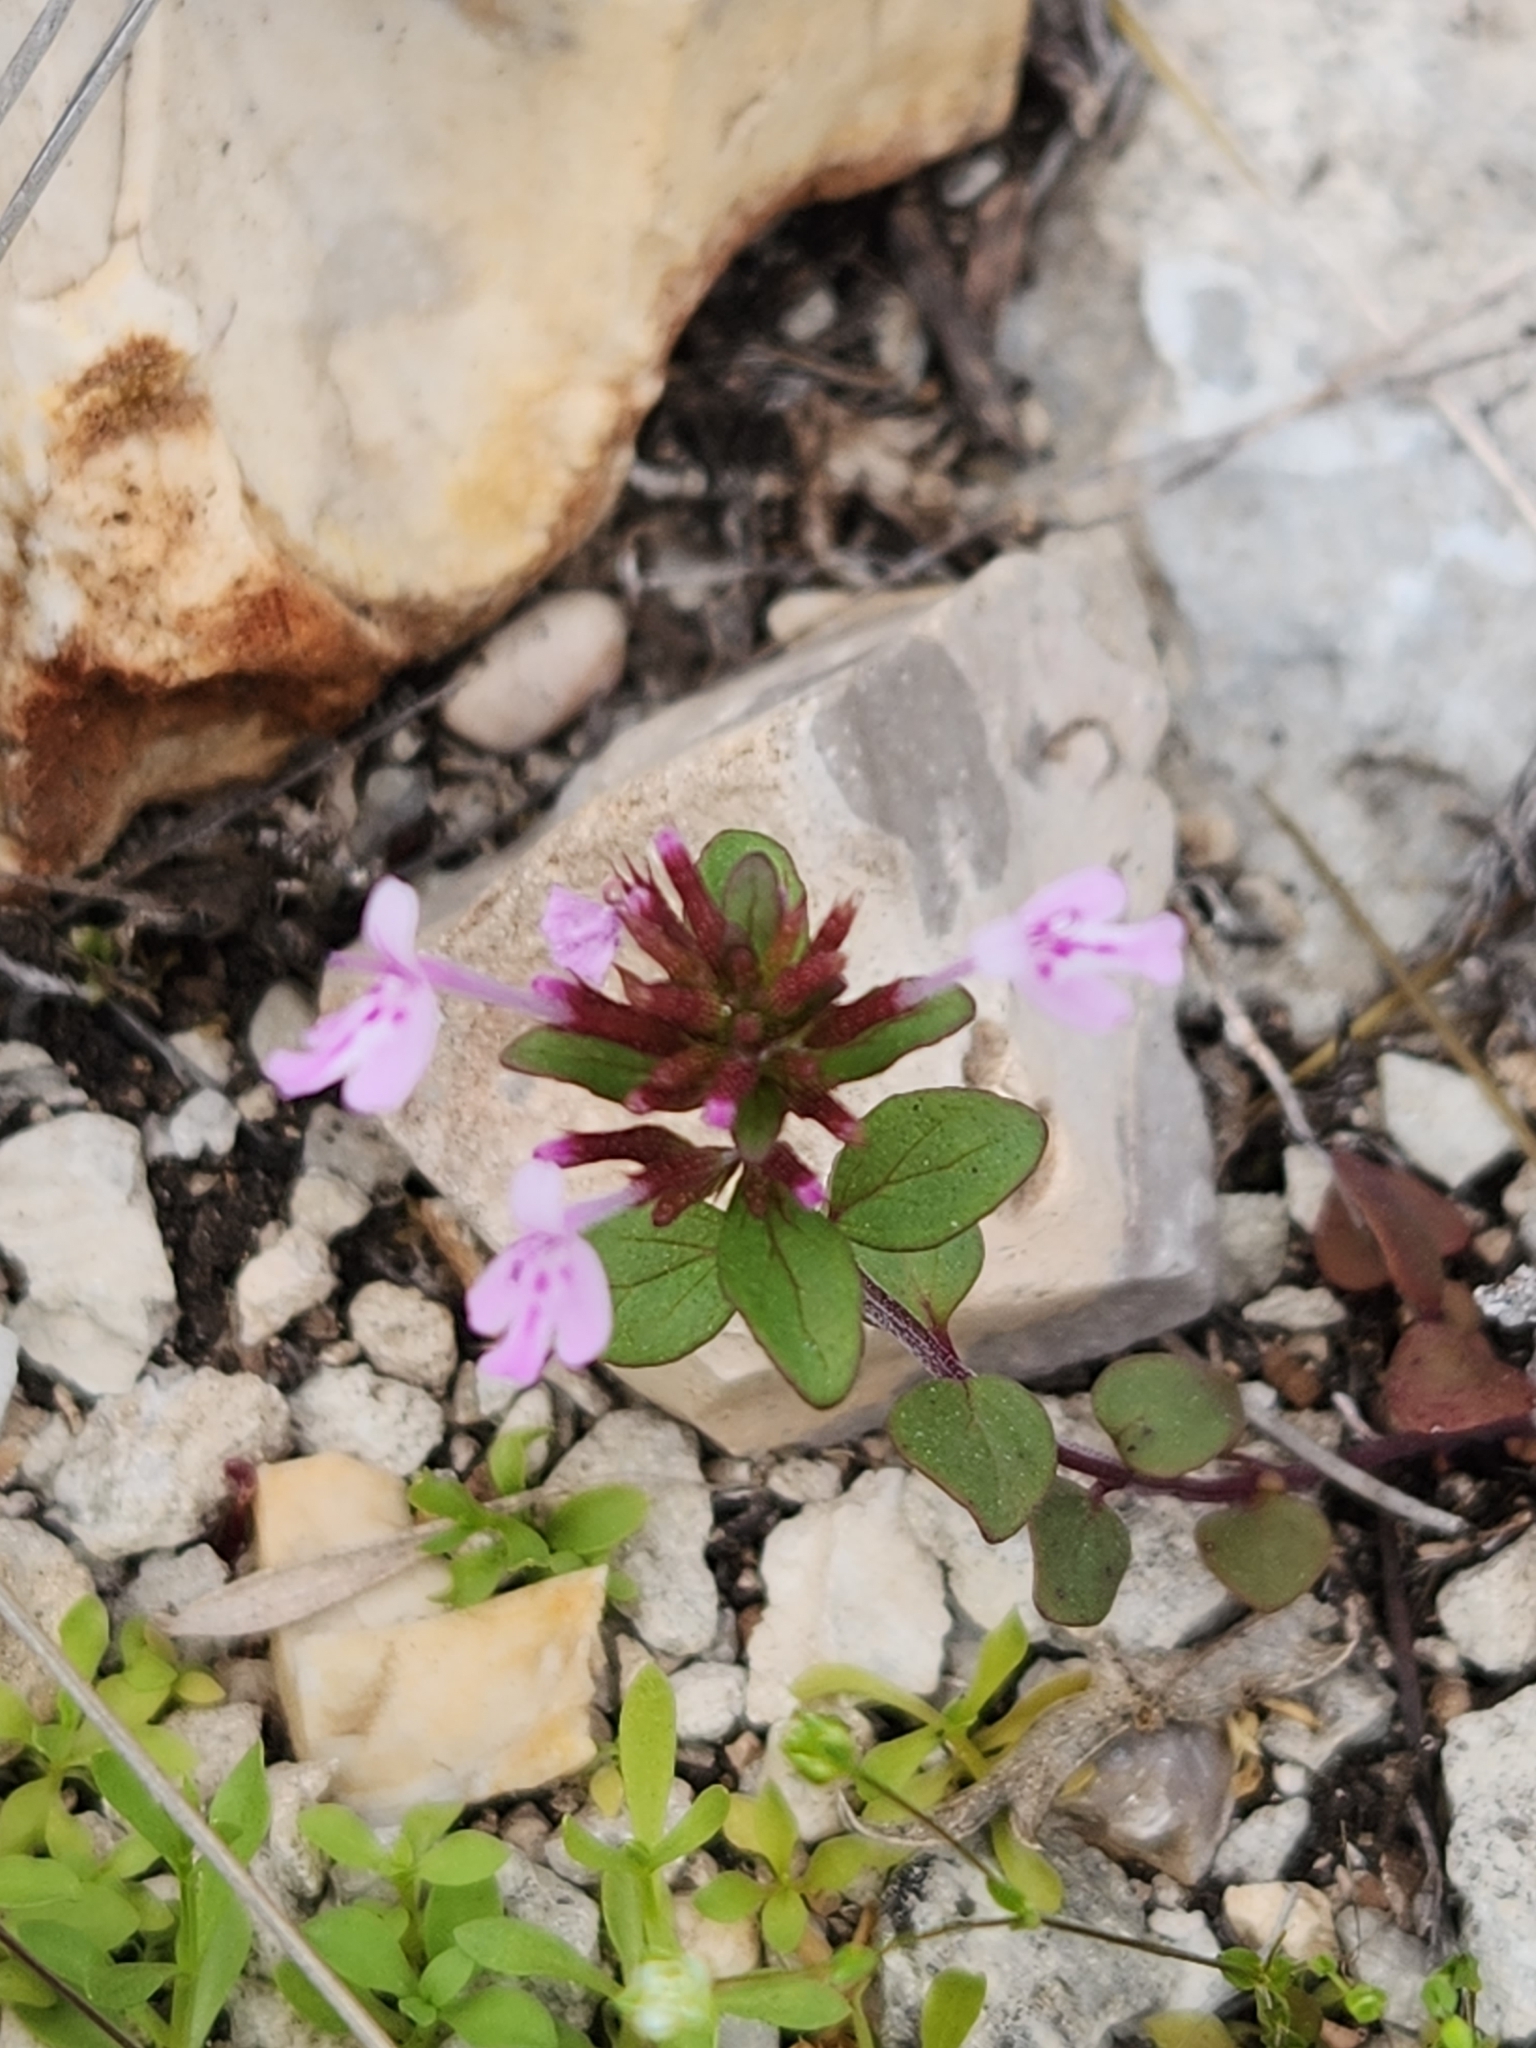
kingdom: Plantae
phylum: Tracheophyta
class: Magnoliopsida
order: Lamiales
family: Lamiaceae
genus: Hedeoma
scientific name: Hedeoma acinoides
